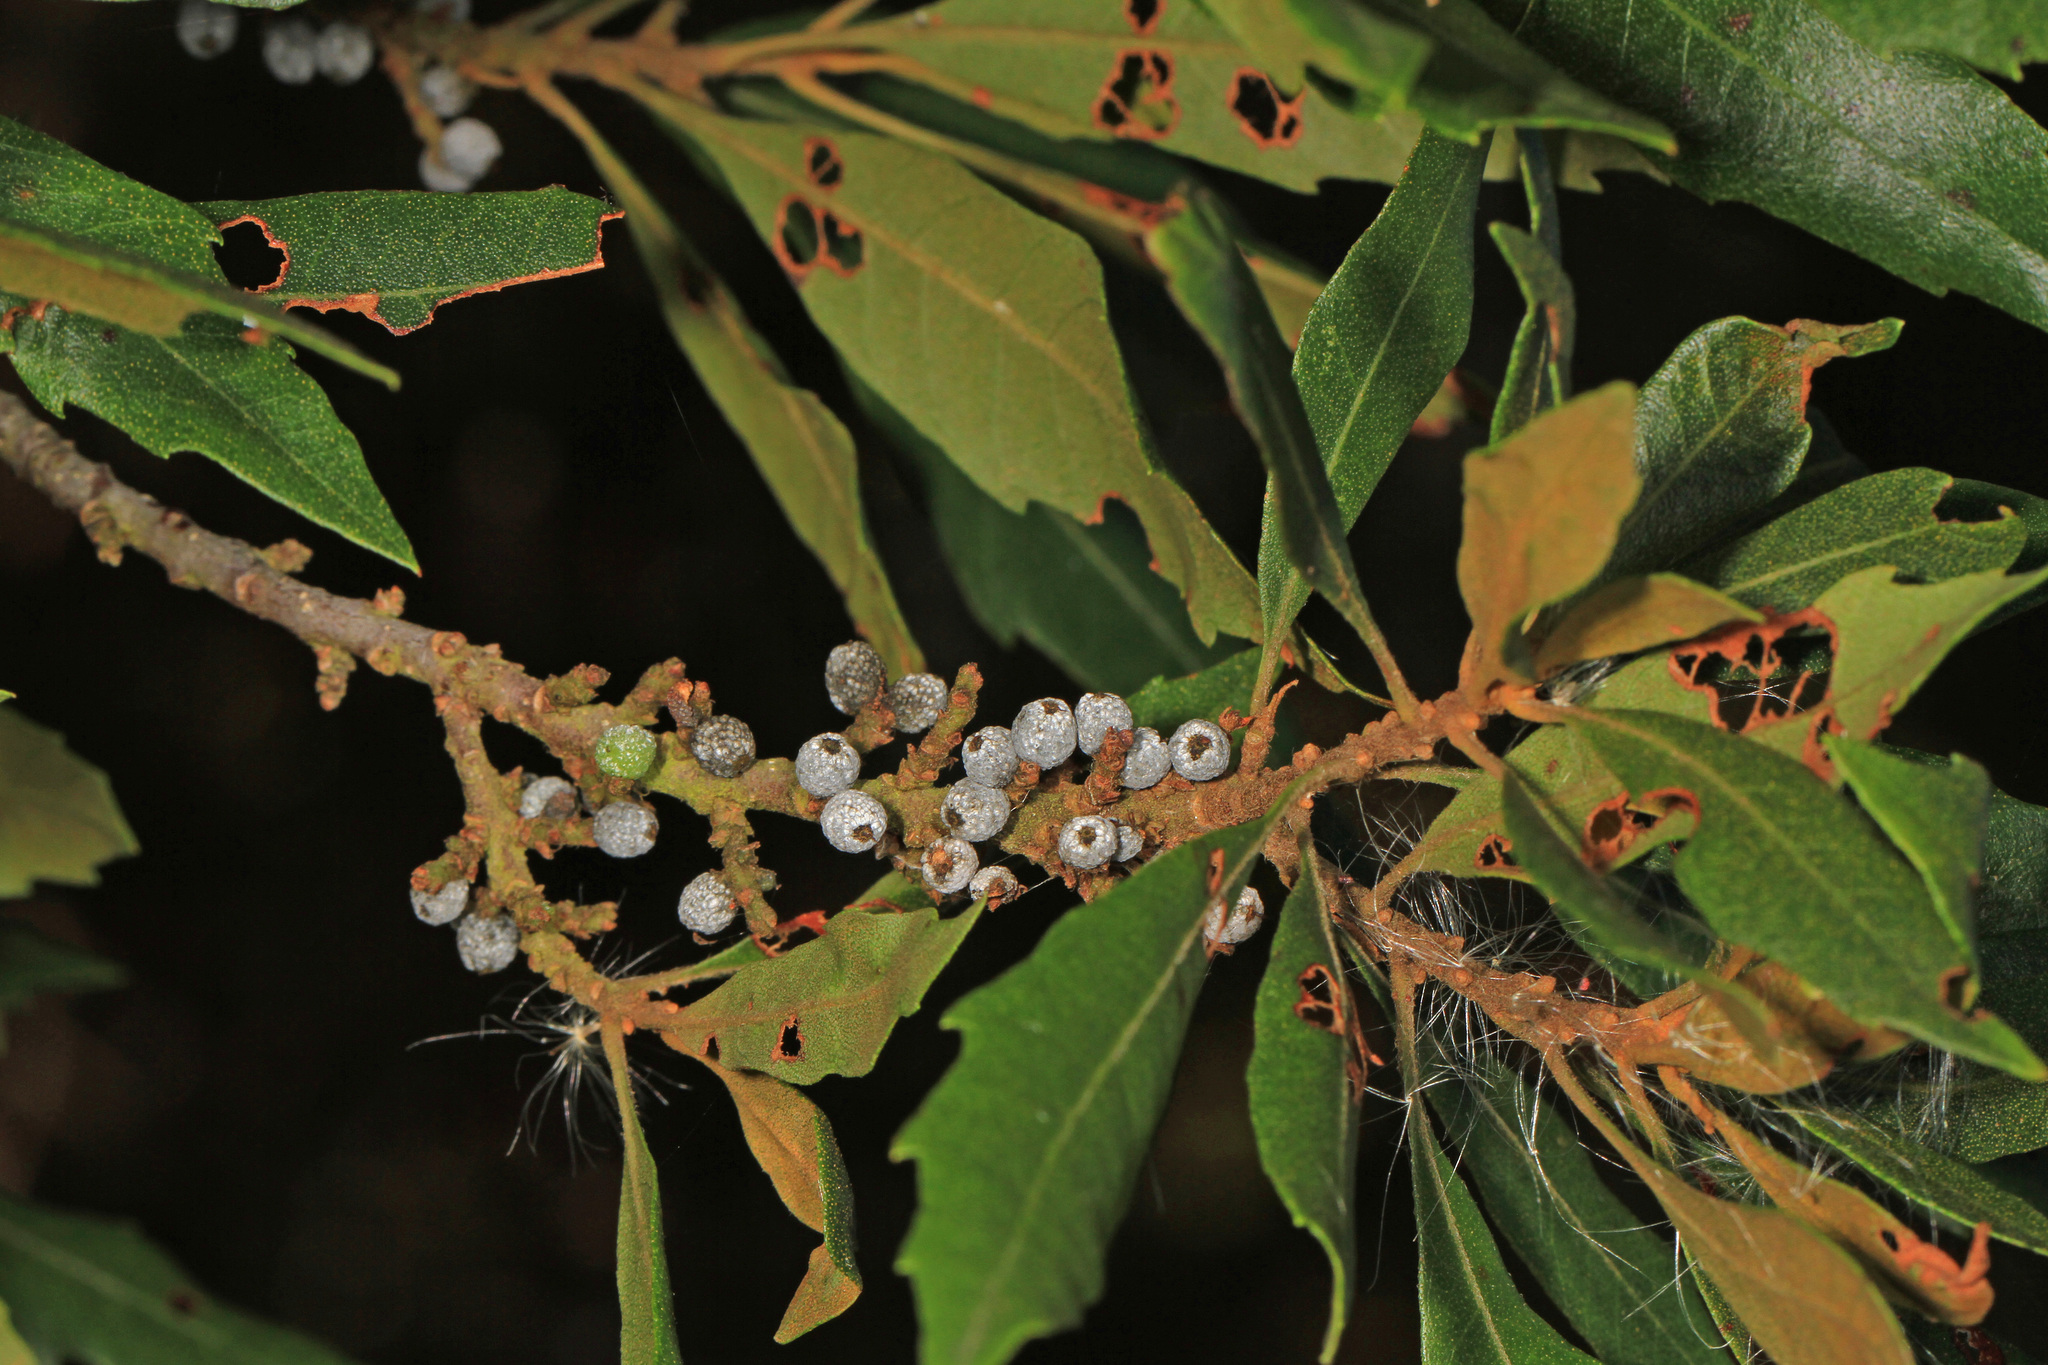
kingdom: Plantae
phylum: Tracheophyta
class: Magnoliopsida
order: Fagales
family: Myricaceae
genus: Morella
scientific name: Morella cerifera
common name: Wax myrtle
